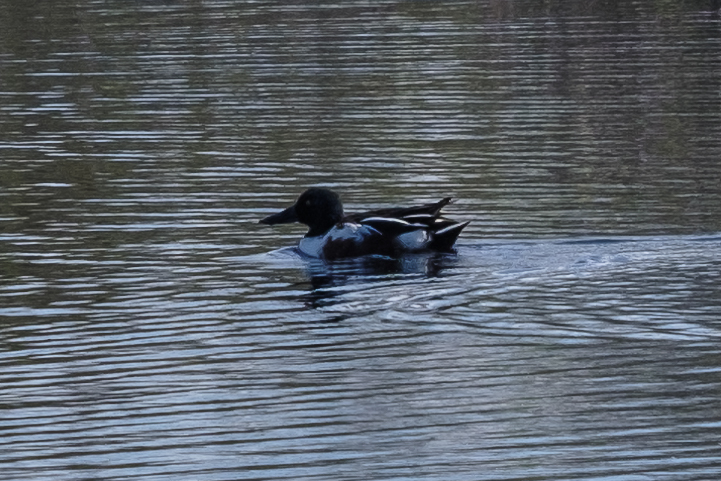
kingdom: Animalia
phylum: Chordata
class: Aves
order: Anseriformes
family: Anatidae
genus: Spatula
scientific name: Spatula clypeata
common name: Northern shoveler
